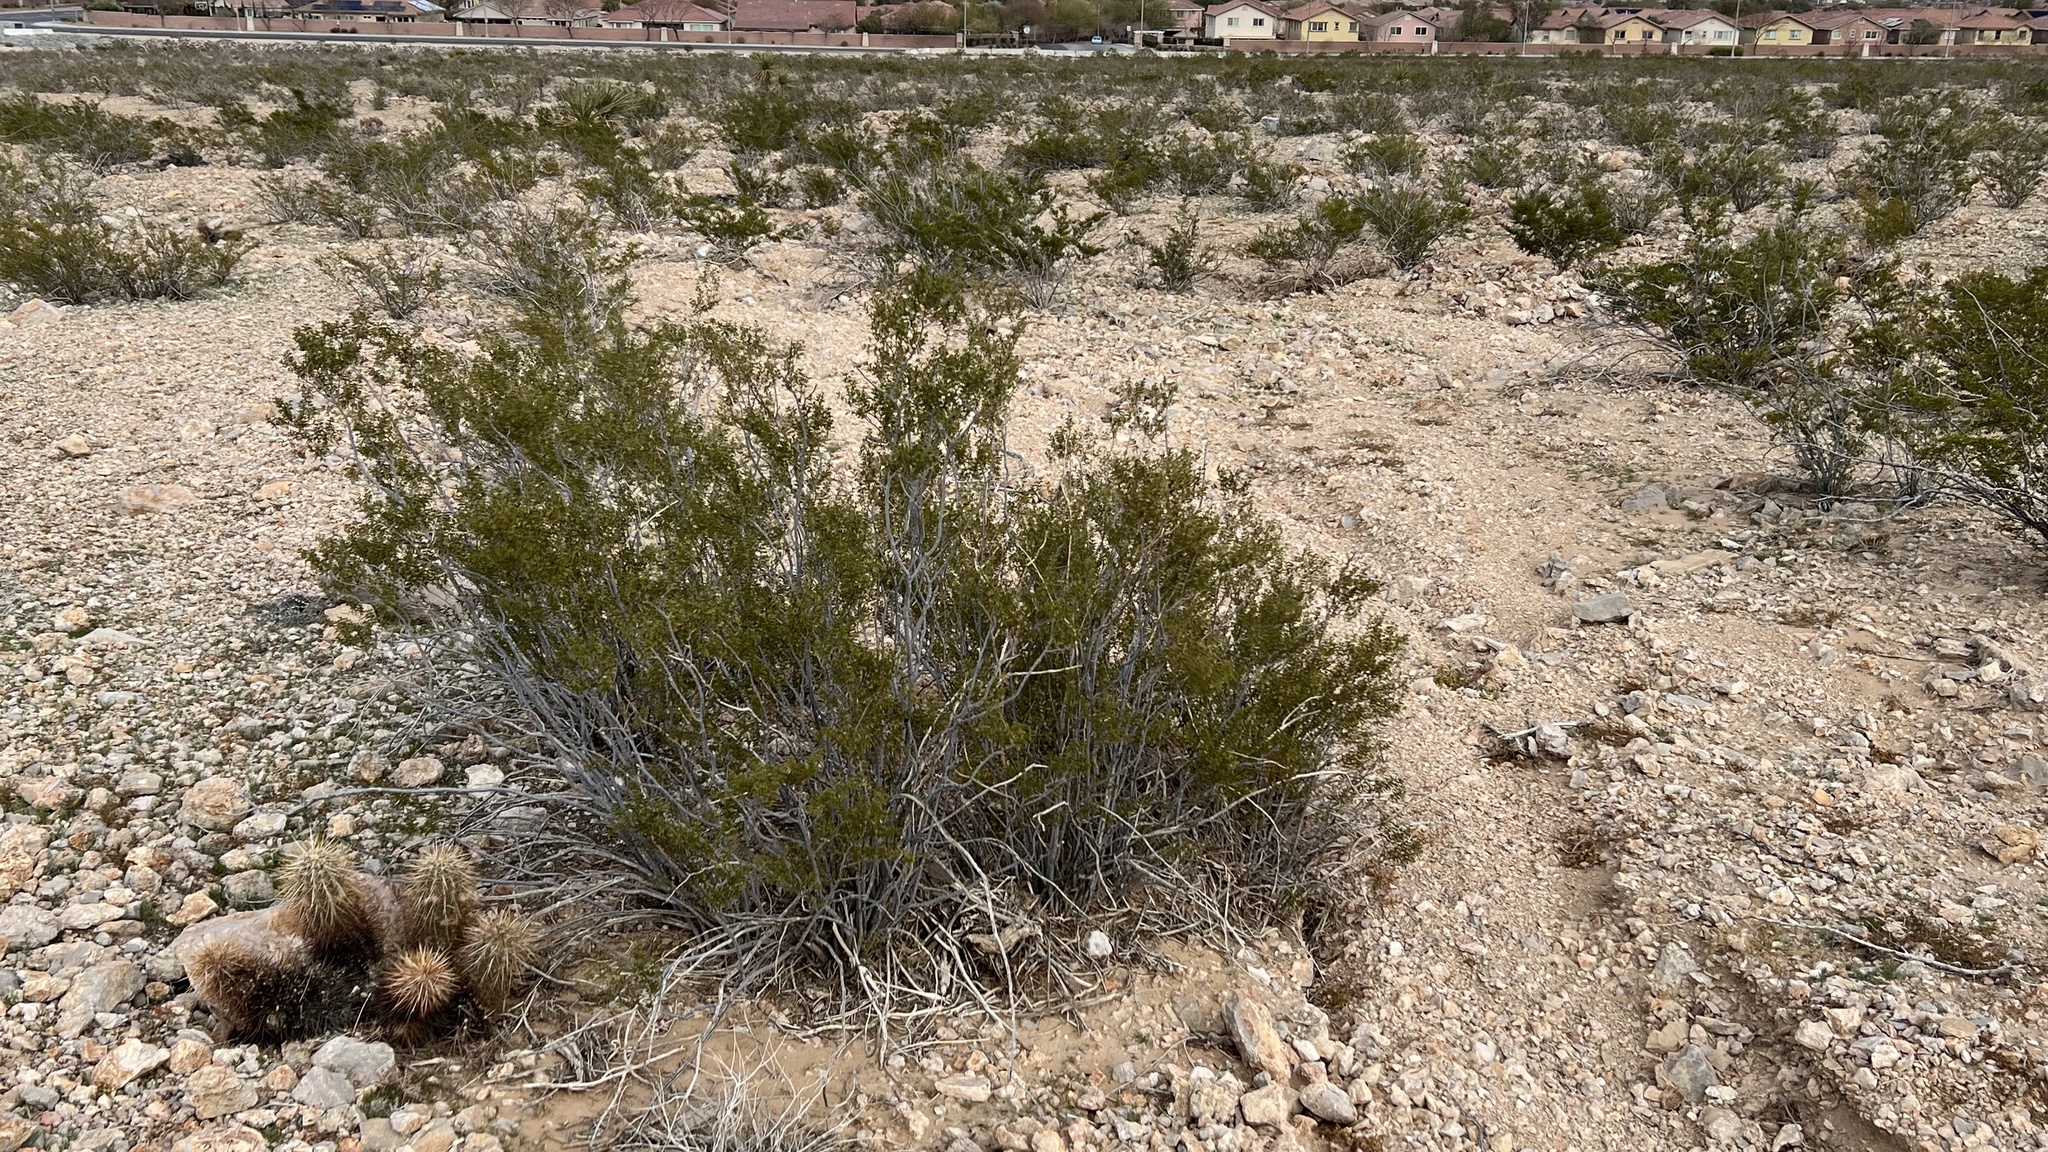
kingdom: Plantae
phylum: Tracheophyta
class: Magnoliopsida
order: Zygophyllales
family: Zygophyllaceae
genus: Larrea
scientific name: Larrea tridentata
